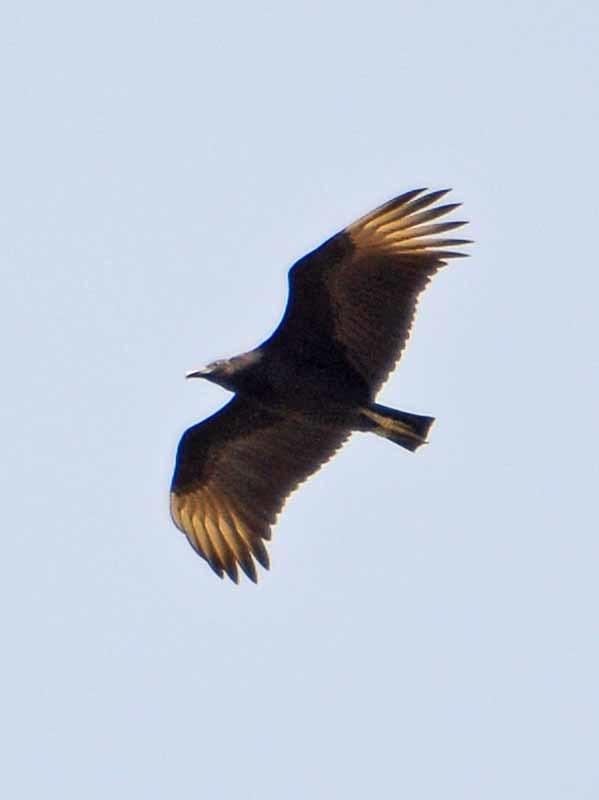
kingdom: Animalia
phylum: Chordata
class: Aves
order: Accipitriformes
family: Cathartidae
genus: Coragyps
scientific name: Coragyps atratus
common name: Black vulture
